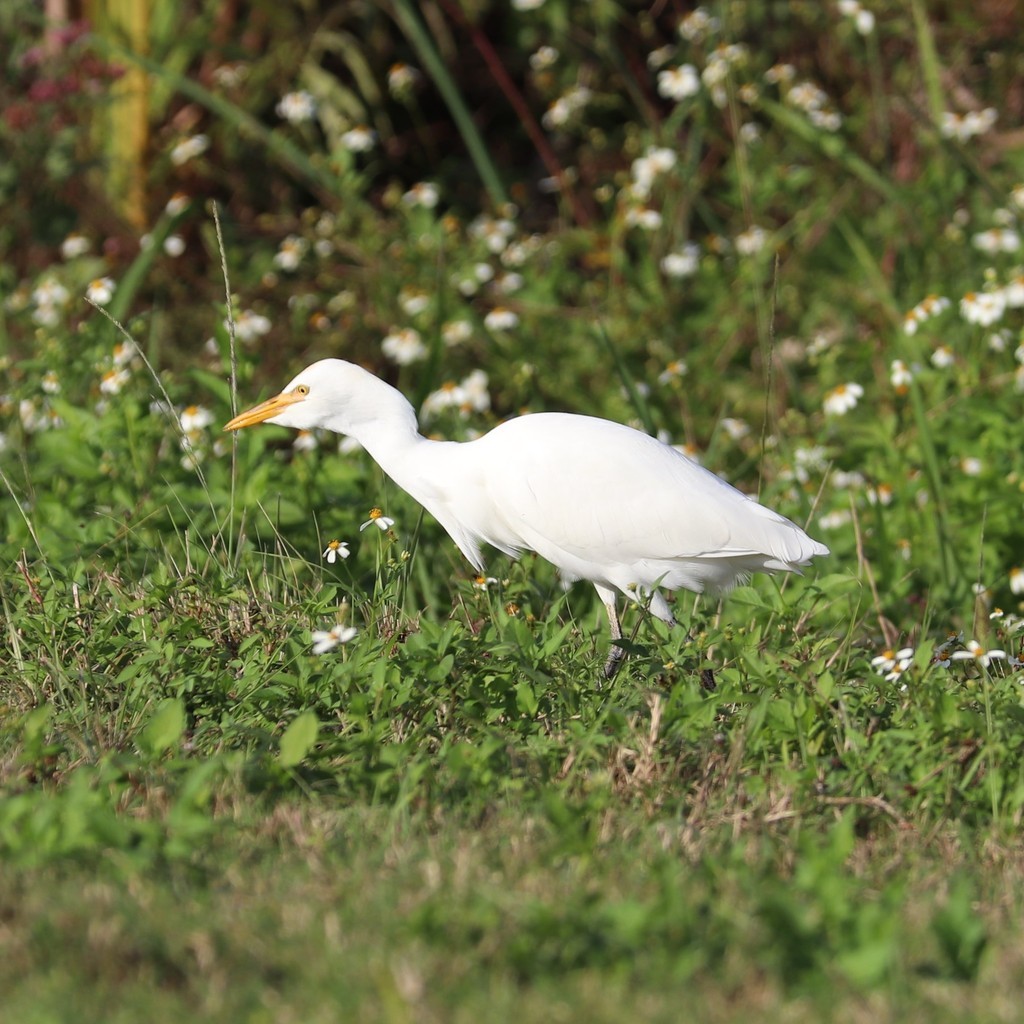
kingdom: Animalia
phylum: Chordata
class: Aves
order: Pelecaniformes
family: Ardeidae
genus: Bubulcus
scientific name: Bubulcus ibis
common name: Cattle egret
